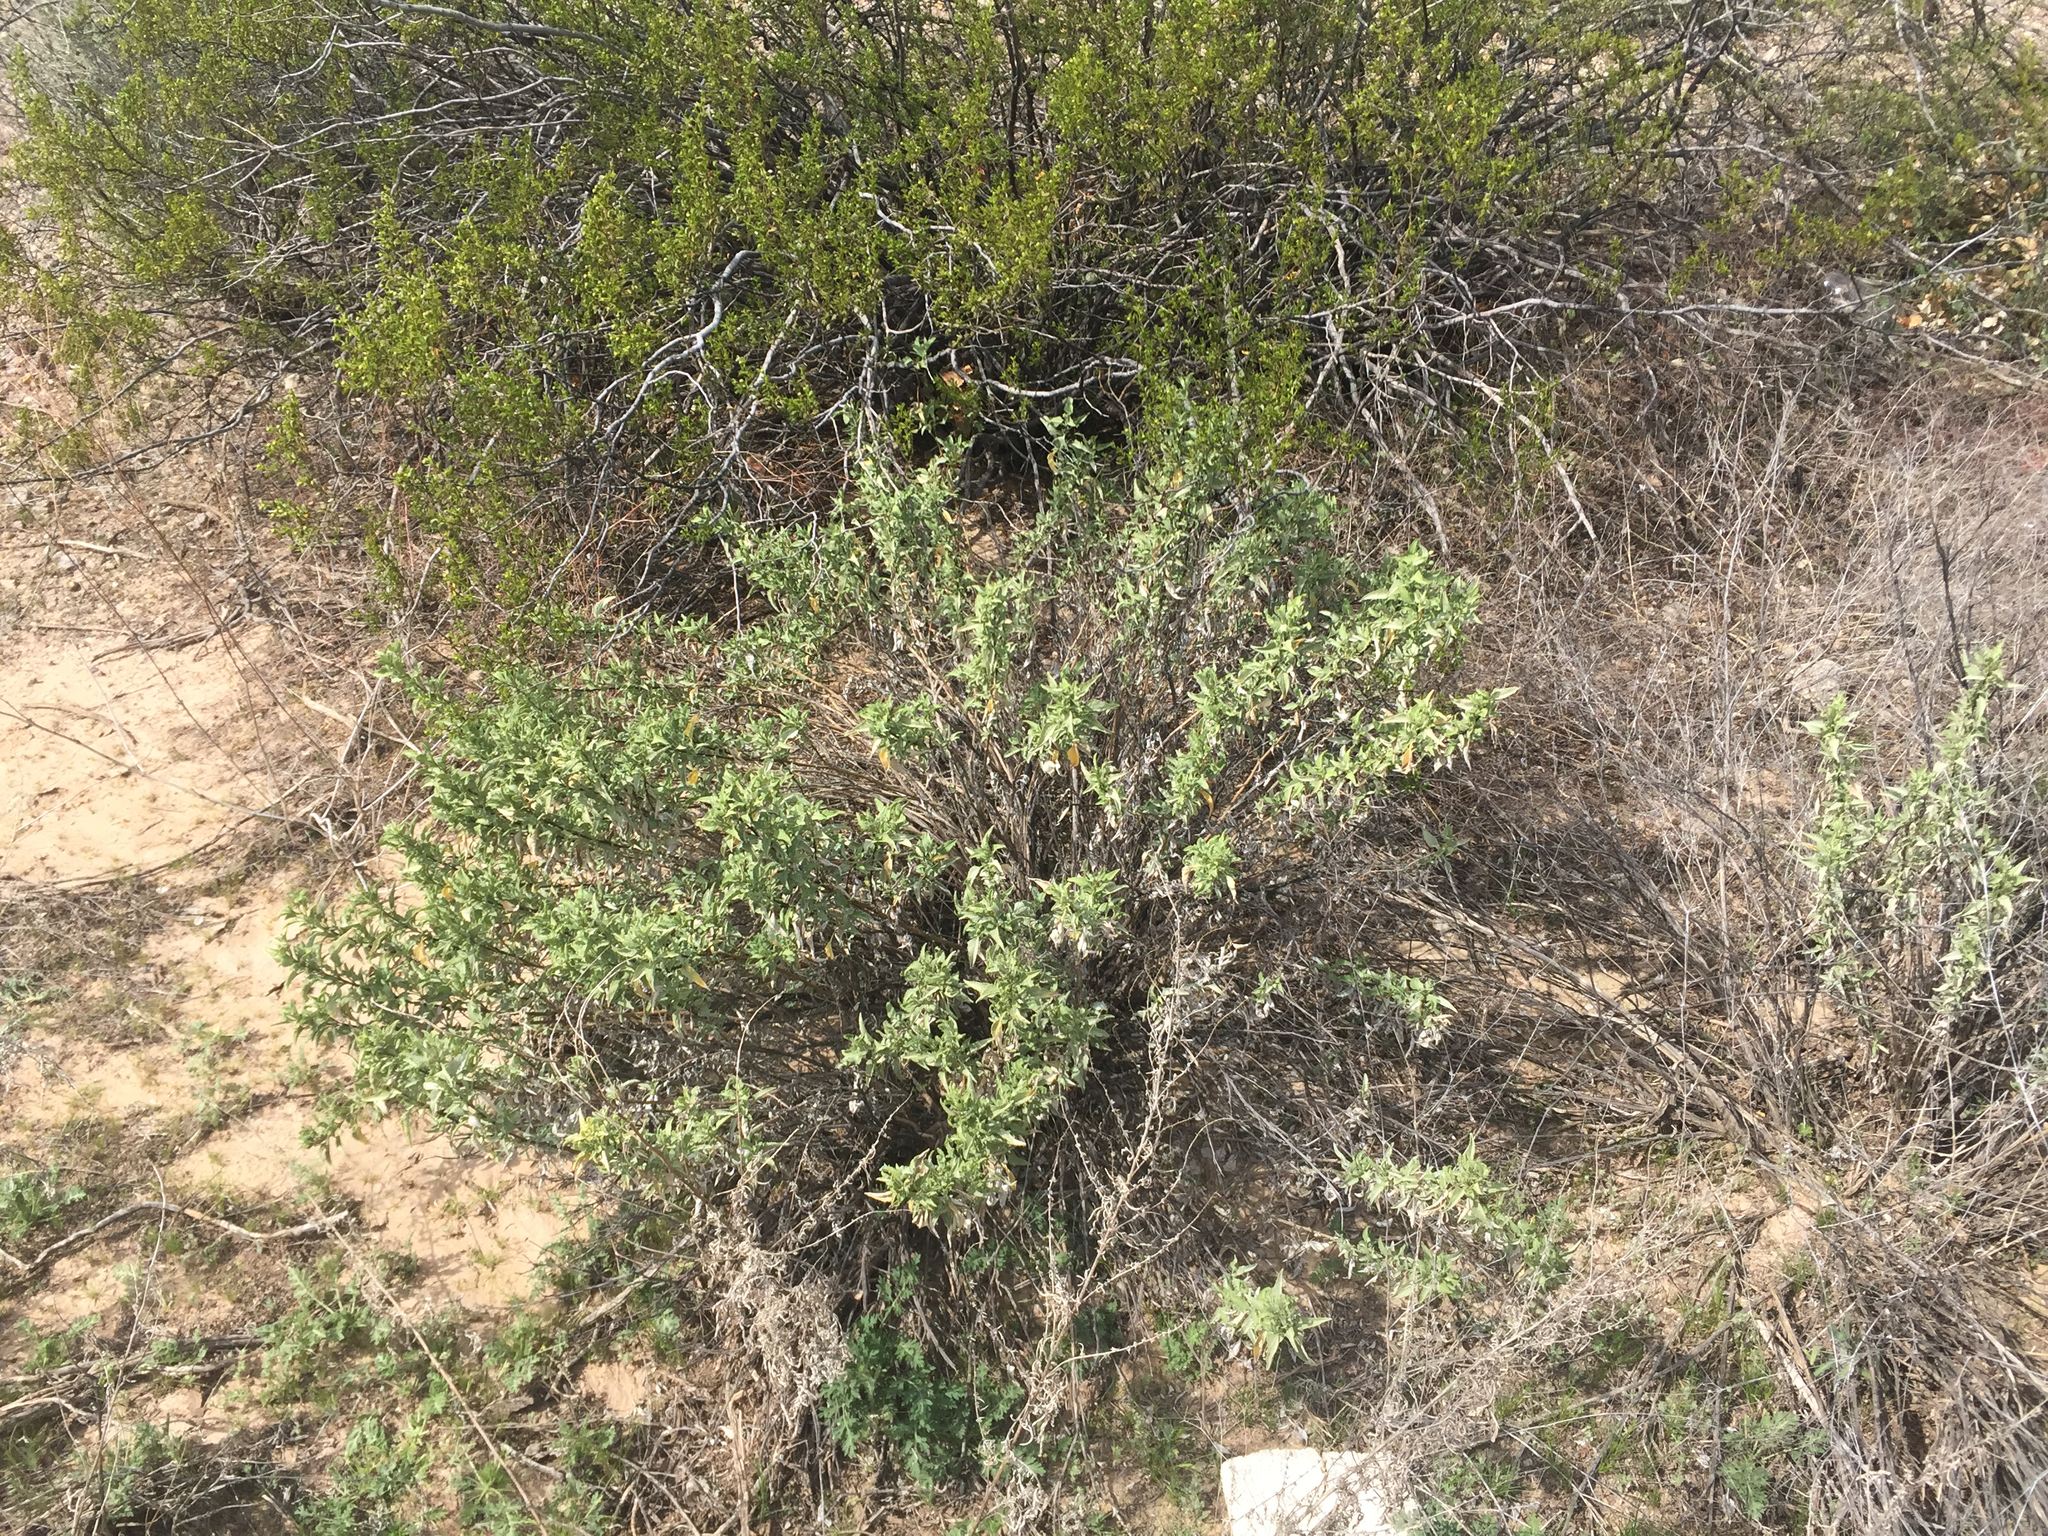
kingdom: Plantae
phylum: Tracheophyta
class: Magnoliopsida
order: Asterales
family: Asteraceae
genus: Ambrosia
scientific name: Ambrosia deltoidea
